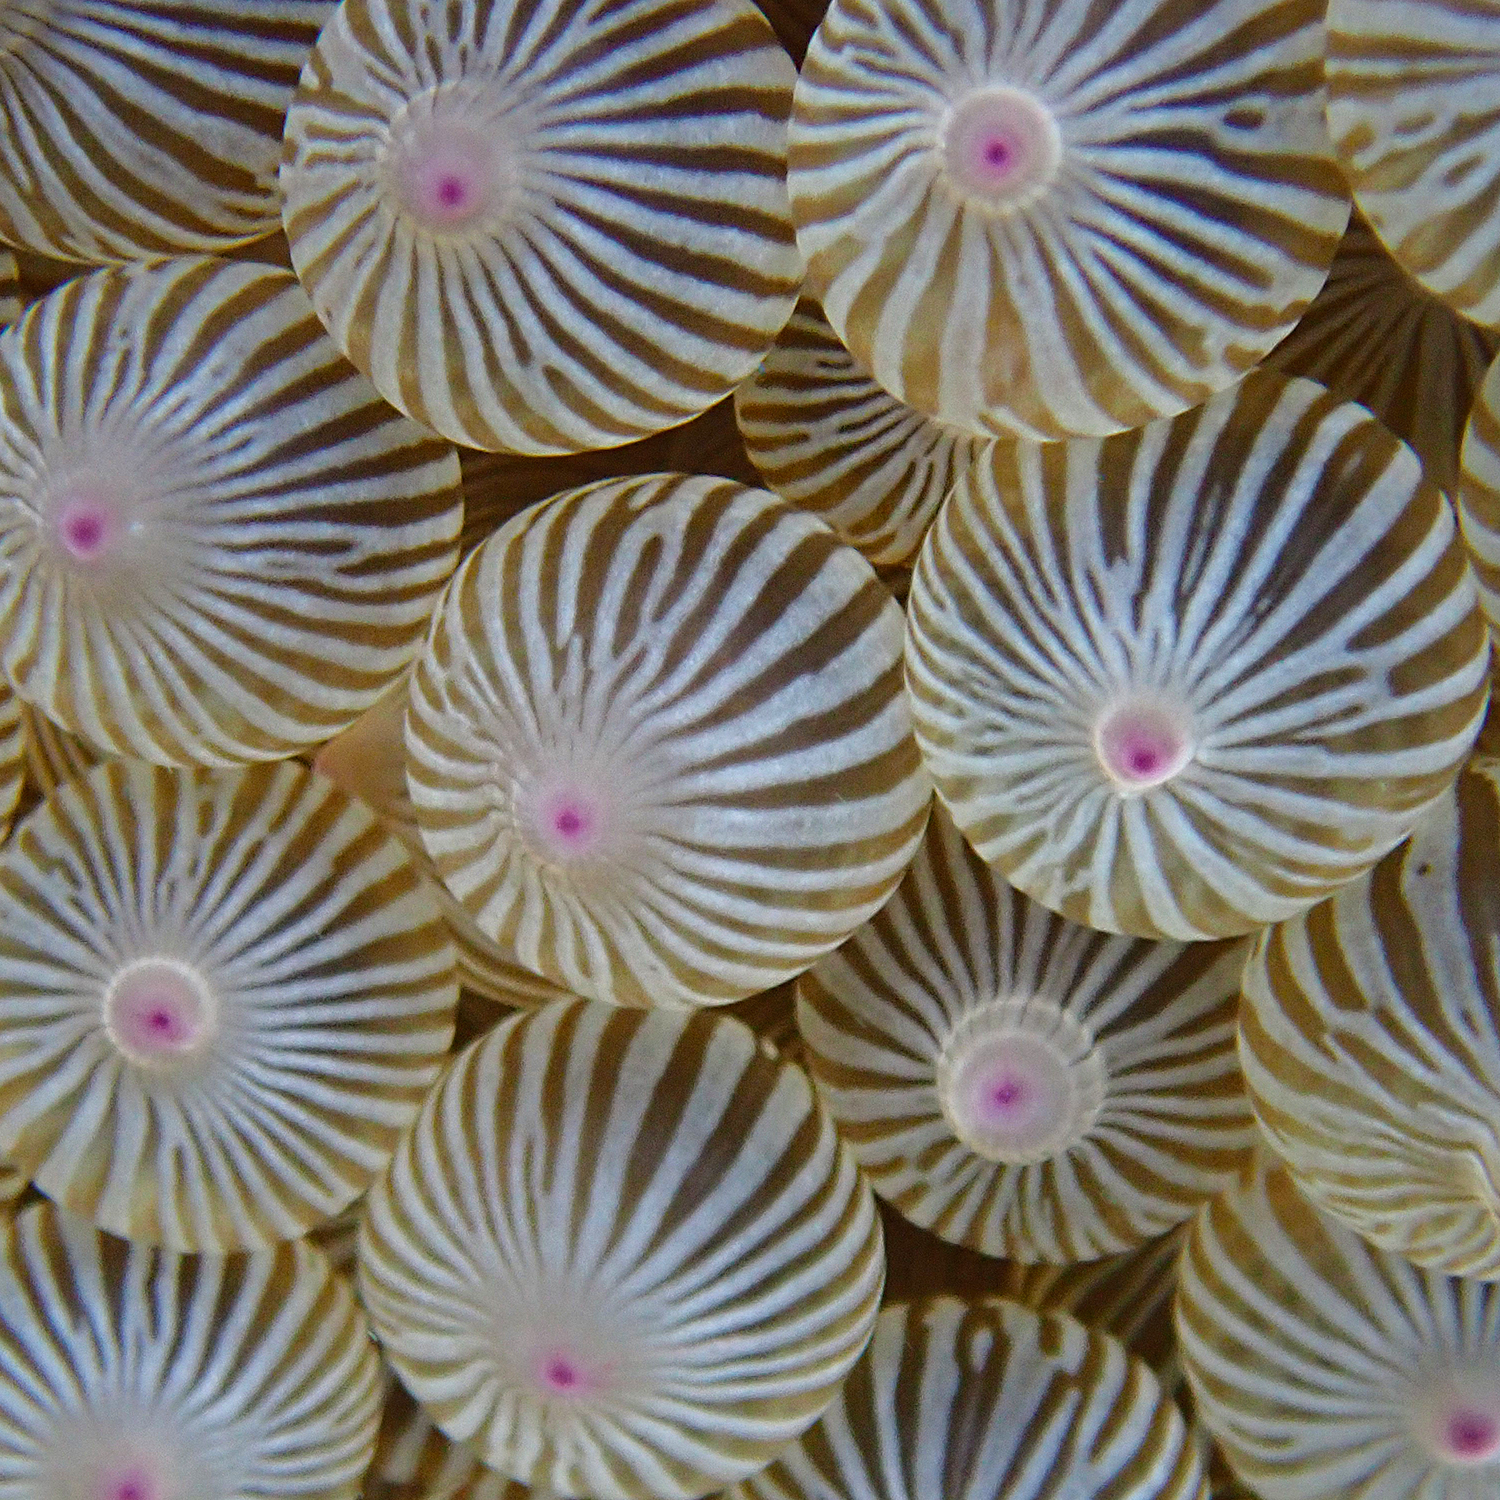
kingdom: Animalia
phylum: Cnidaria
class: Anthozoa
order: Actiniaria
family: Actiniidae
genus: Entacmaea
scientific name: Entacmaea quadricolor
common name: Bulb tentacle sea anemone
